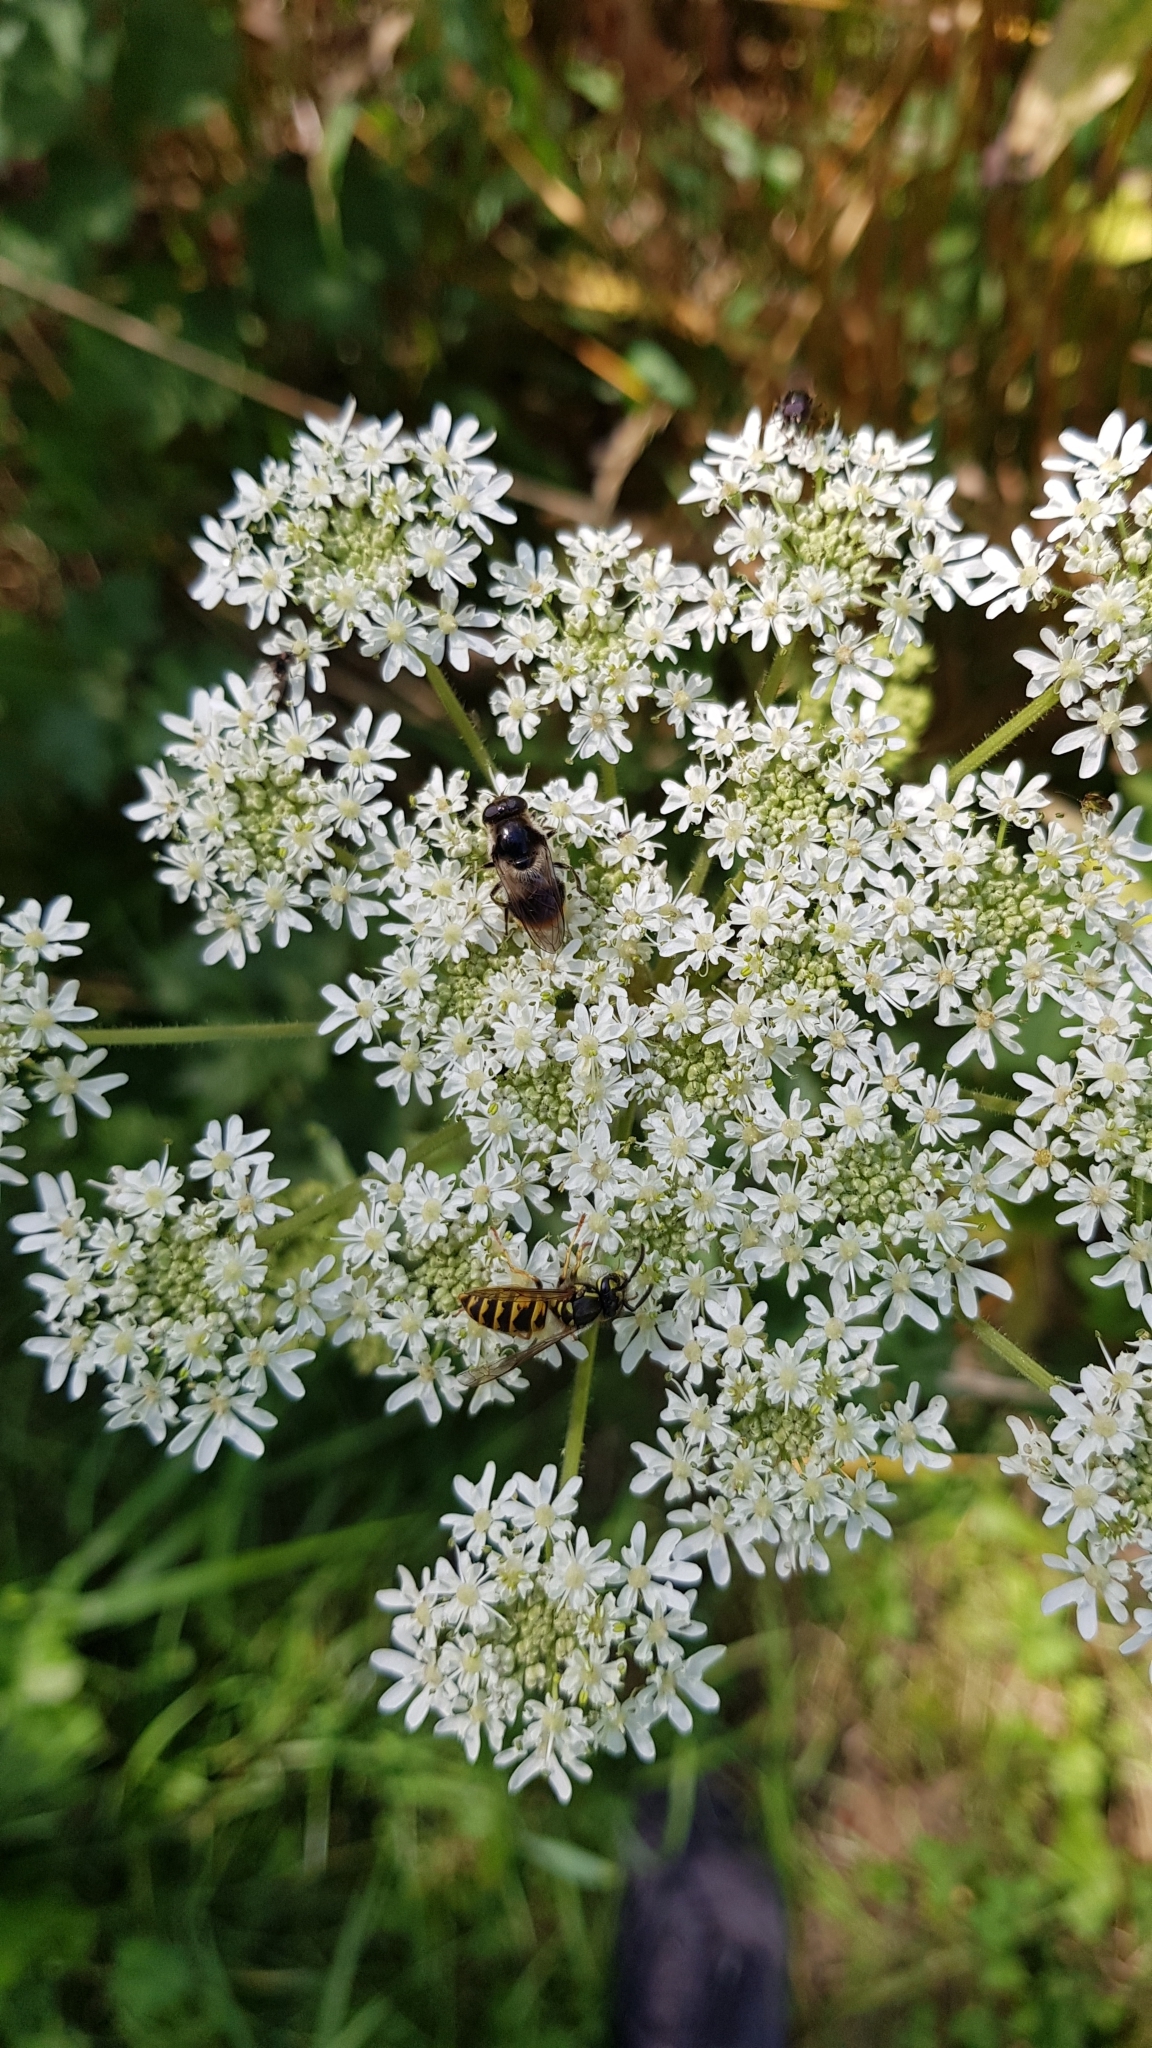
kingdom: Plantae
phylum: Tracheophyta
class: Magnoliopsida
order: Apiales
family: Apiaceae
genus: Heracleum
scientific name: Heracleum sphondylium
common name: Hogweed
